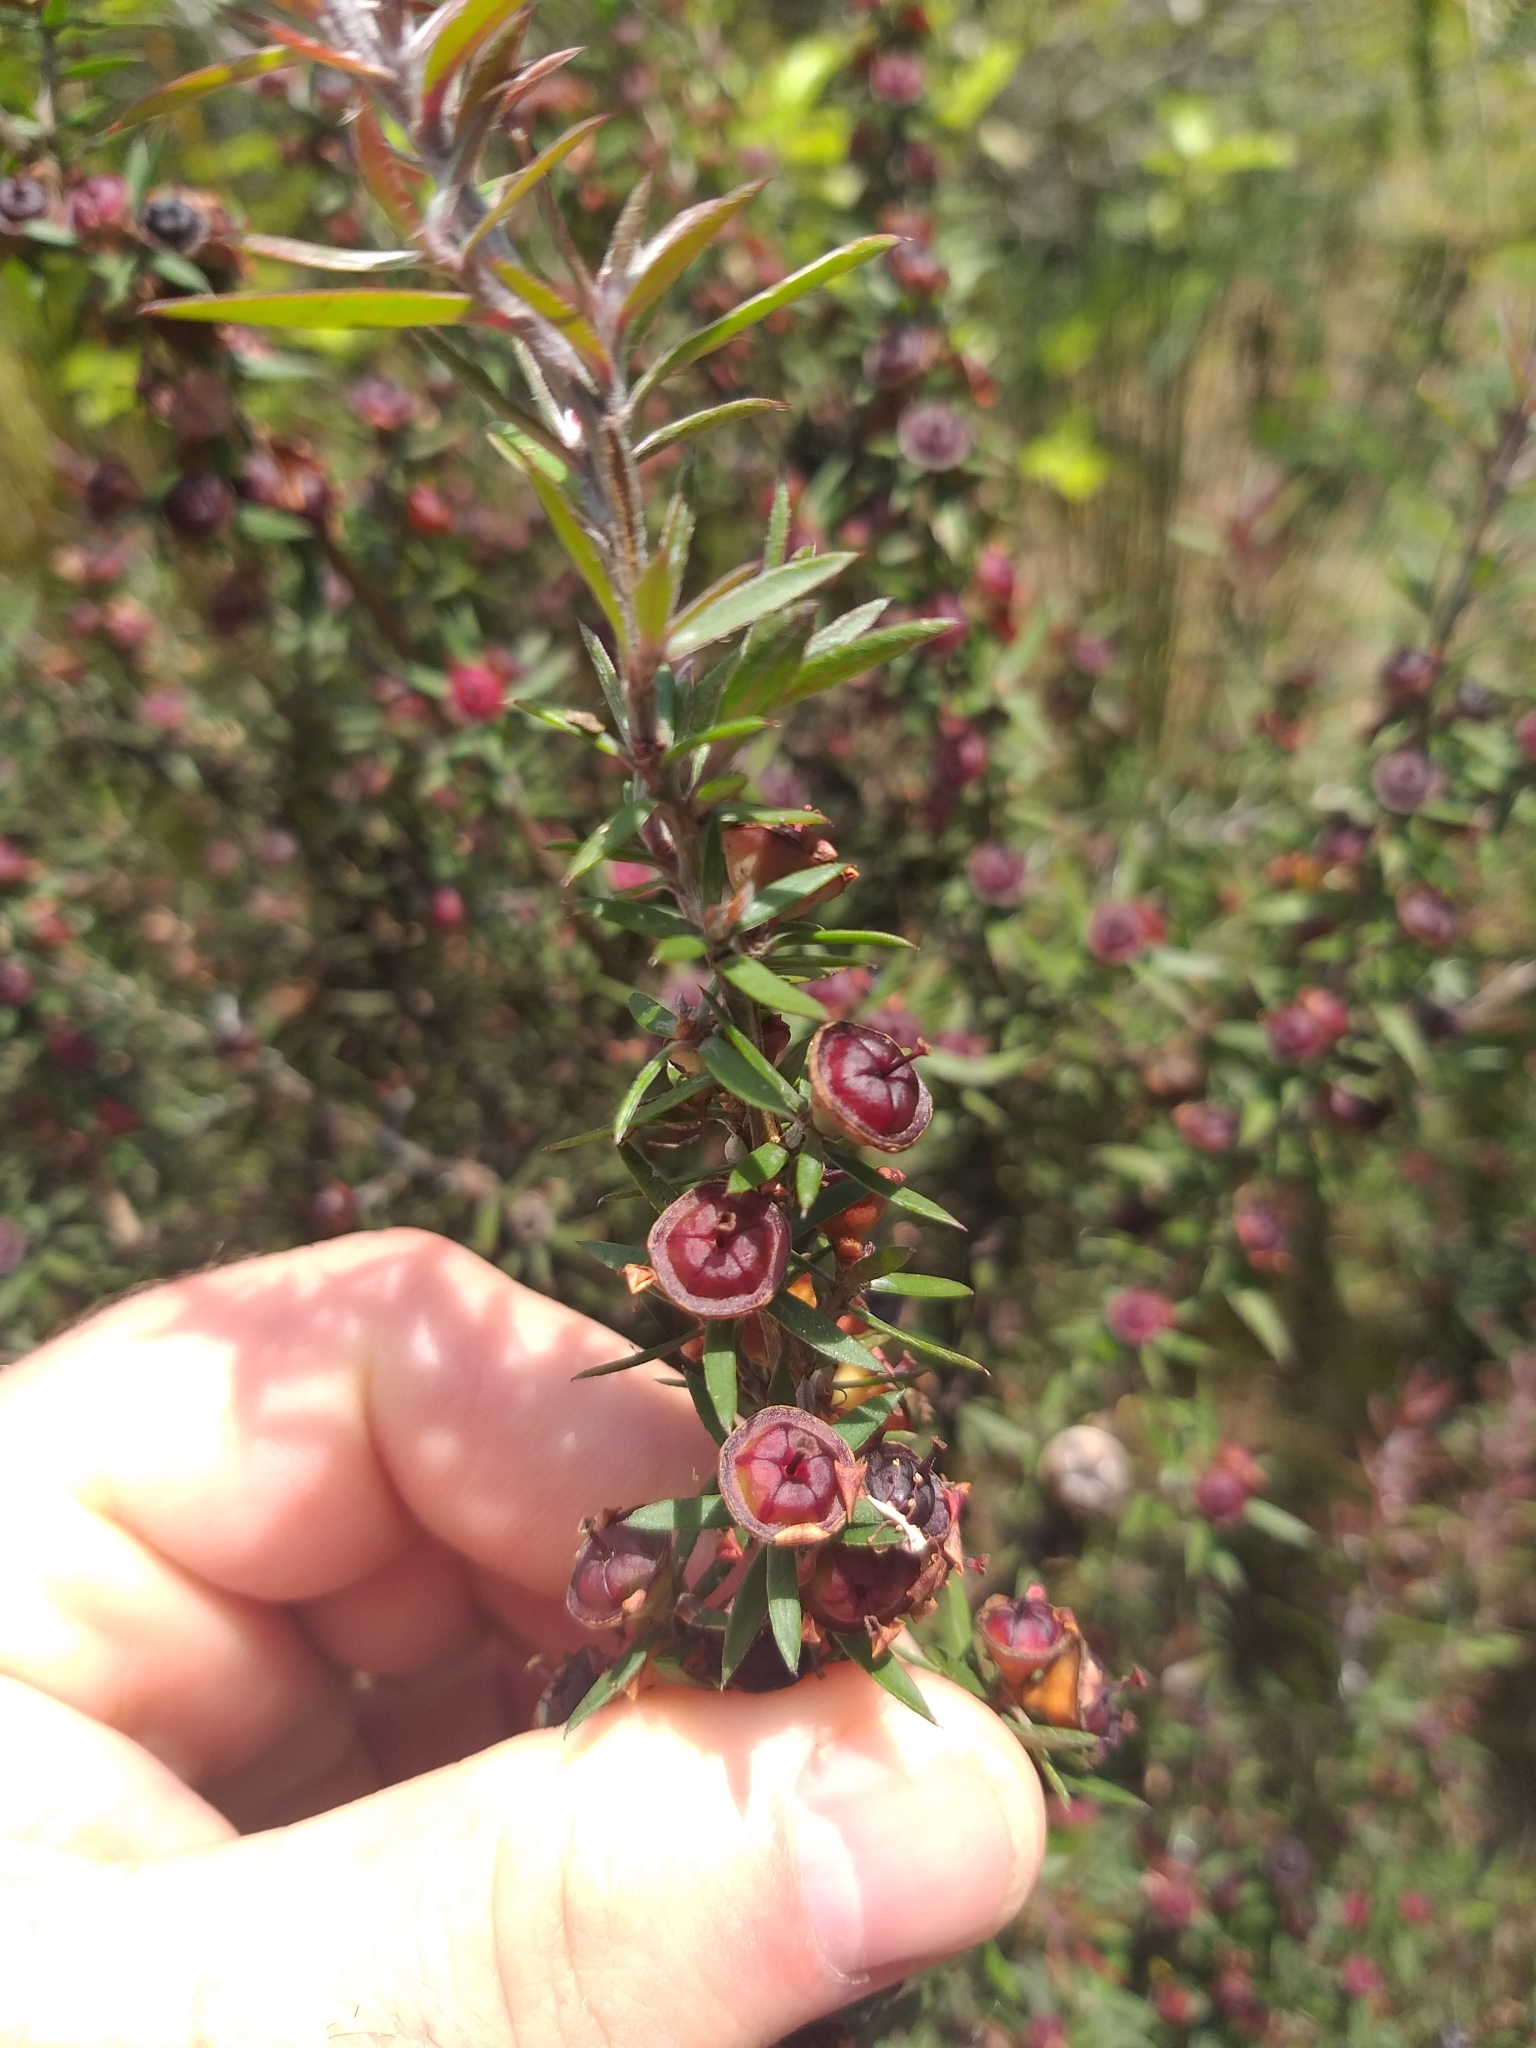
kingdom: Plantae
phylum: Tracheophyta
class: Magnoliopsida
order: Myrtales
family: Myrtaceae
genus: Leptospermum
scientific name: Leptospermum scoparium
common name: Broom tea-tree
